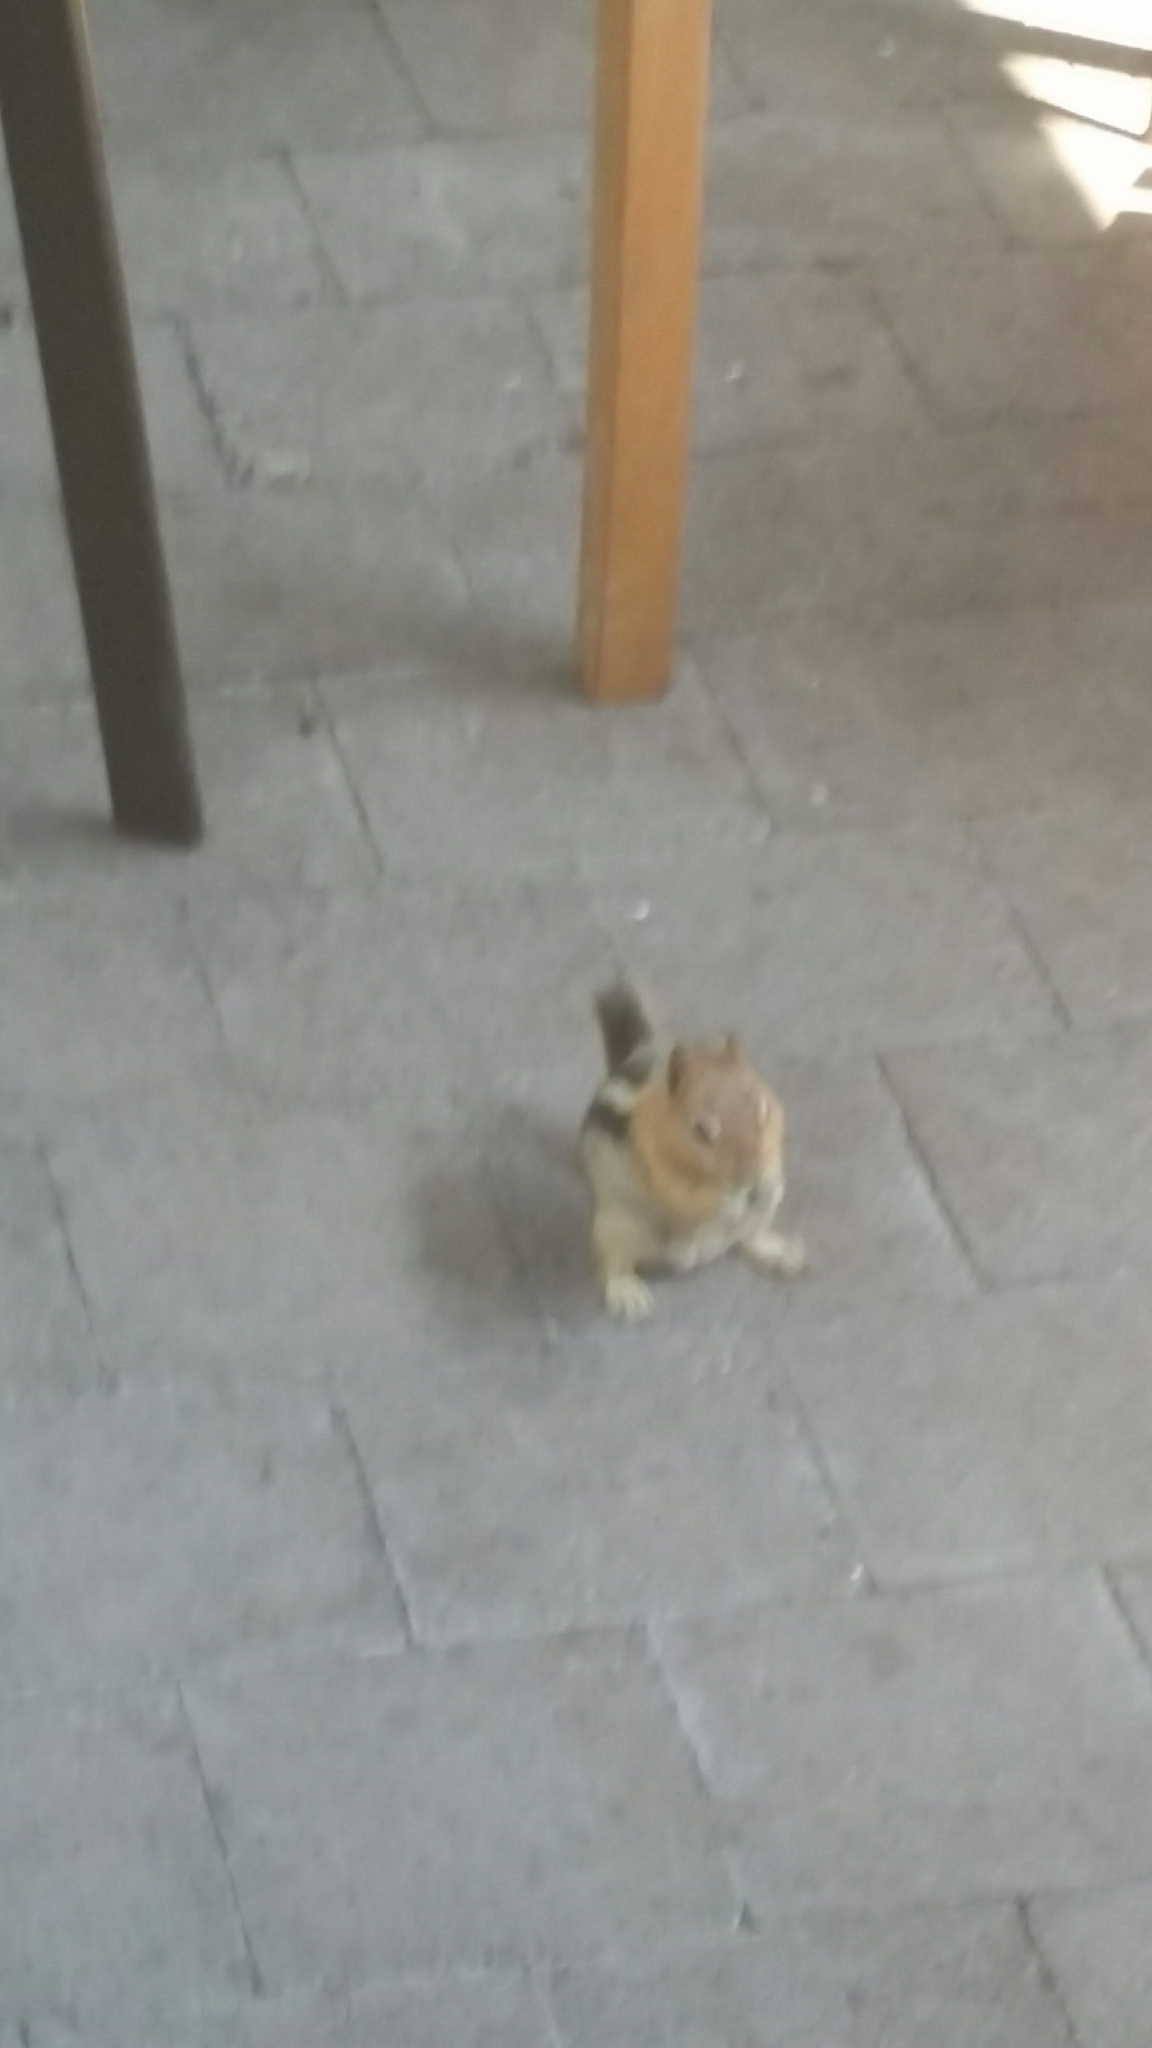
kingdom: Animalia
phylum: Chordata
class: Mammalia
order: Rodentia
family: Sciuridae
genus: Callospermophilus
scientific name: Callospermophilus lateralis
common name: Golden-mantled ground squirrel
